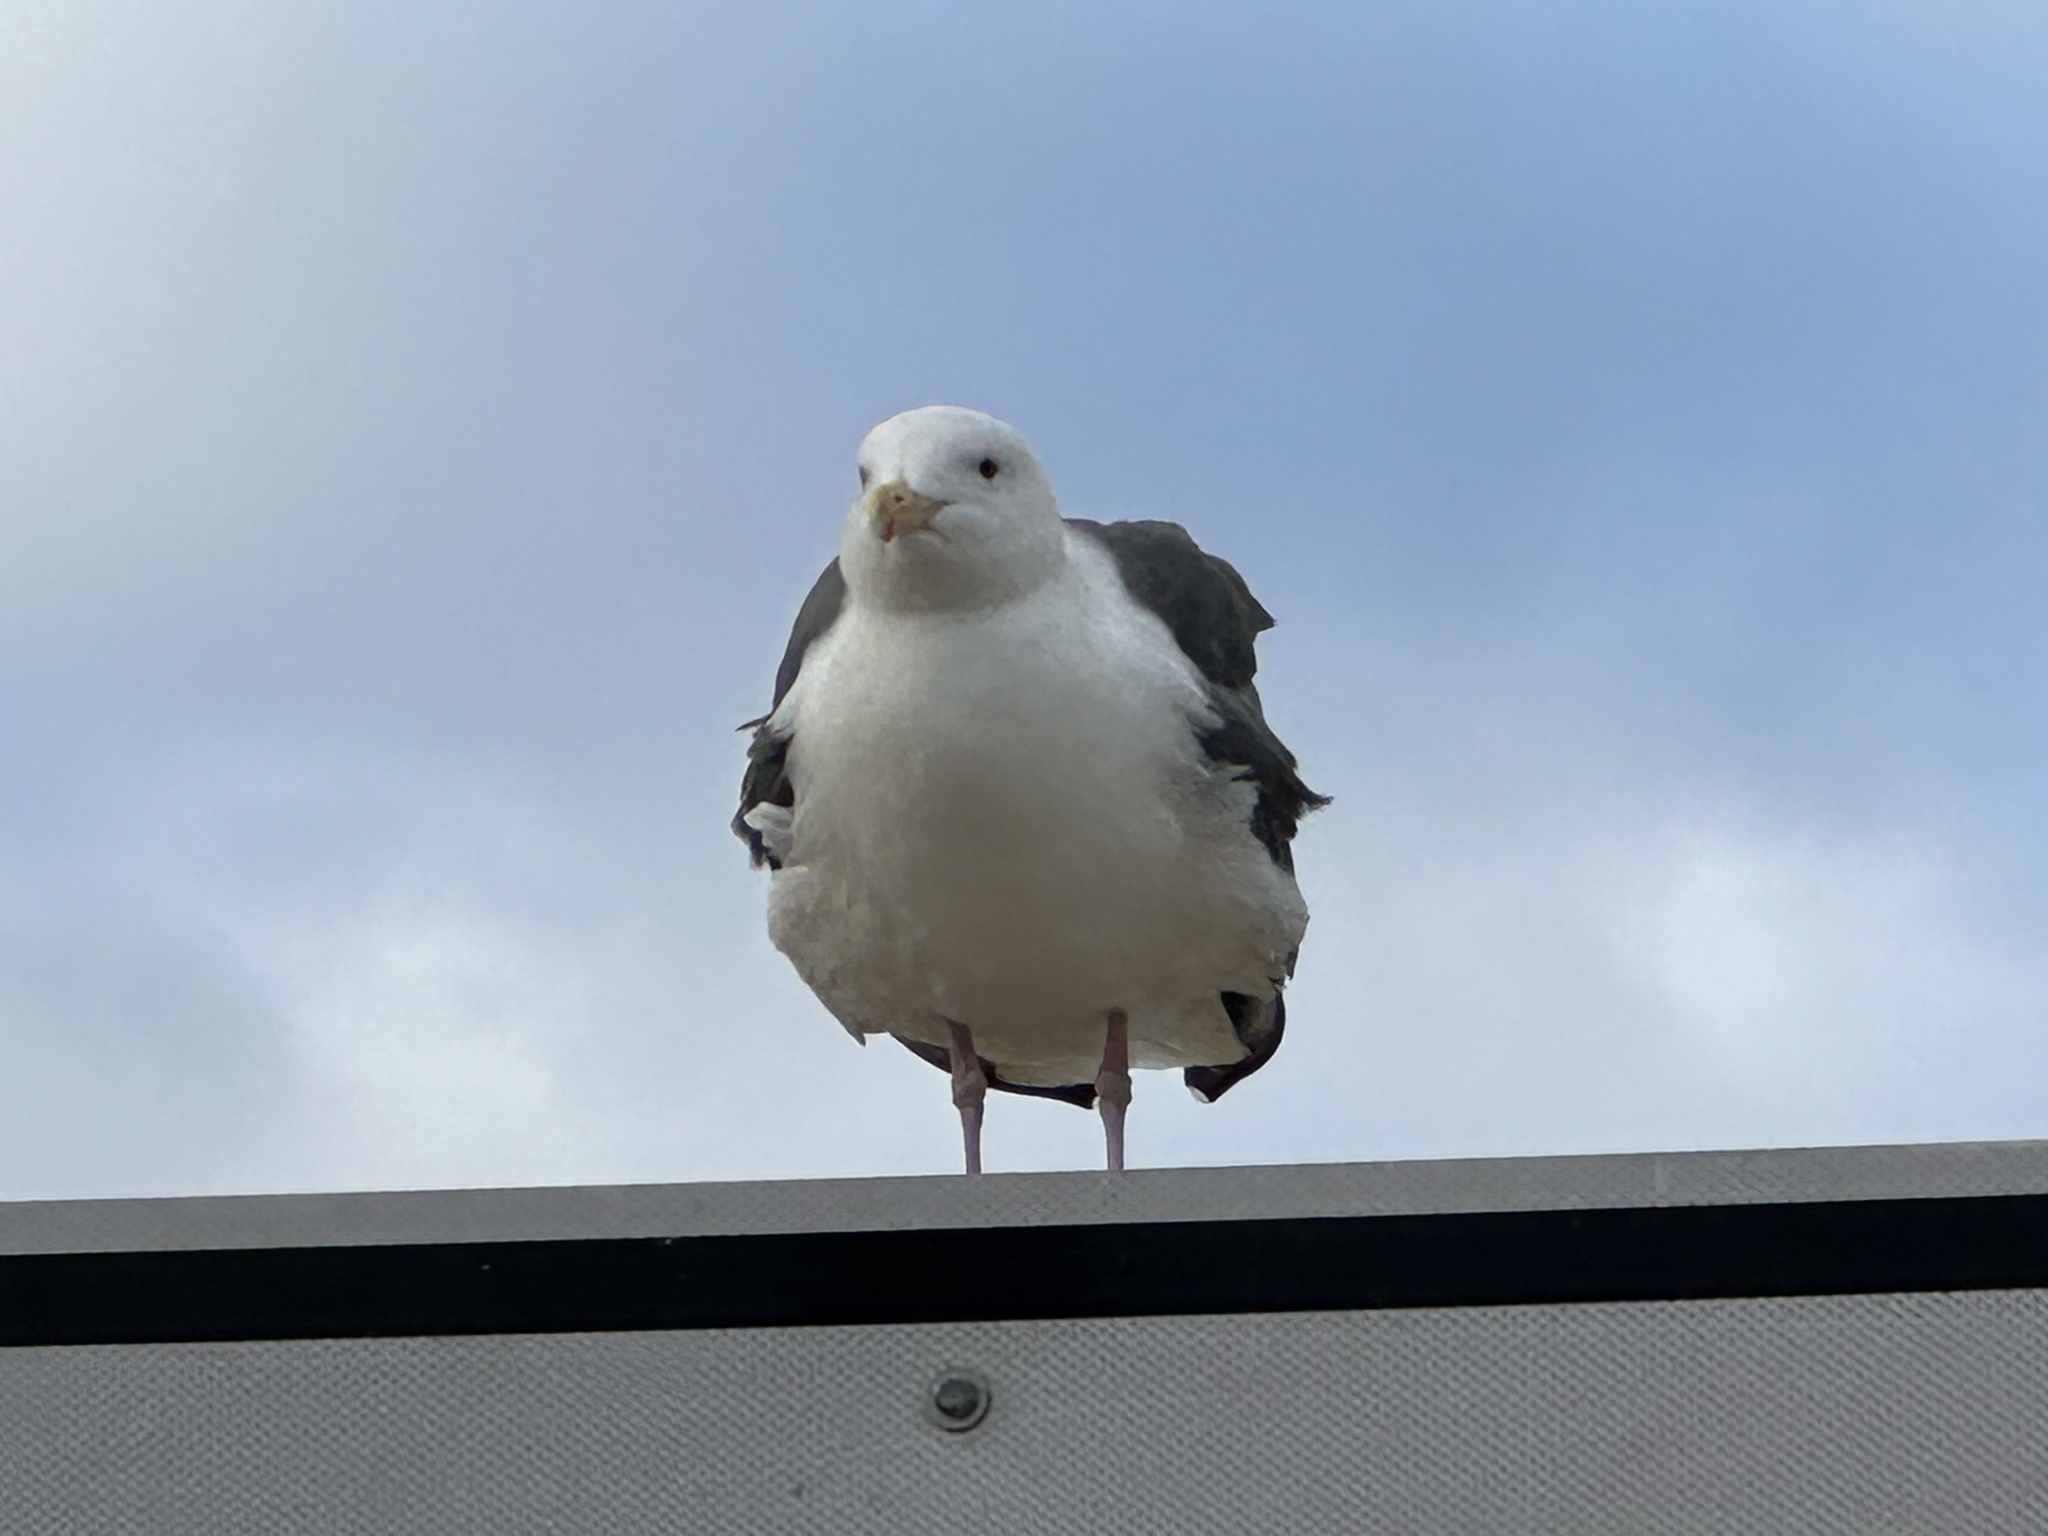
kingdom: Animalia
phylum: Chordata
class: Aves
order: Charadriiformes
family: Laridae
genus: Larus
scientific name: Larus occidentalis
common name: Western gull
